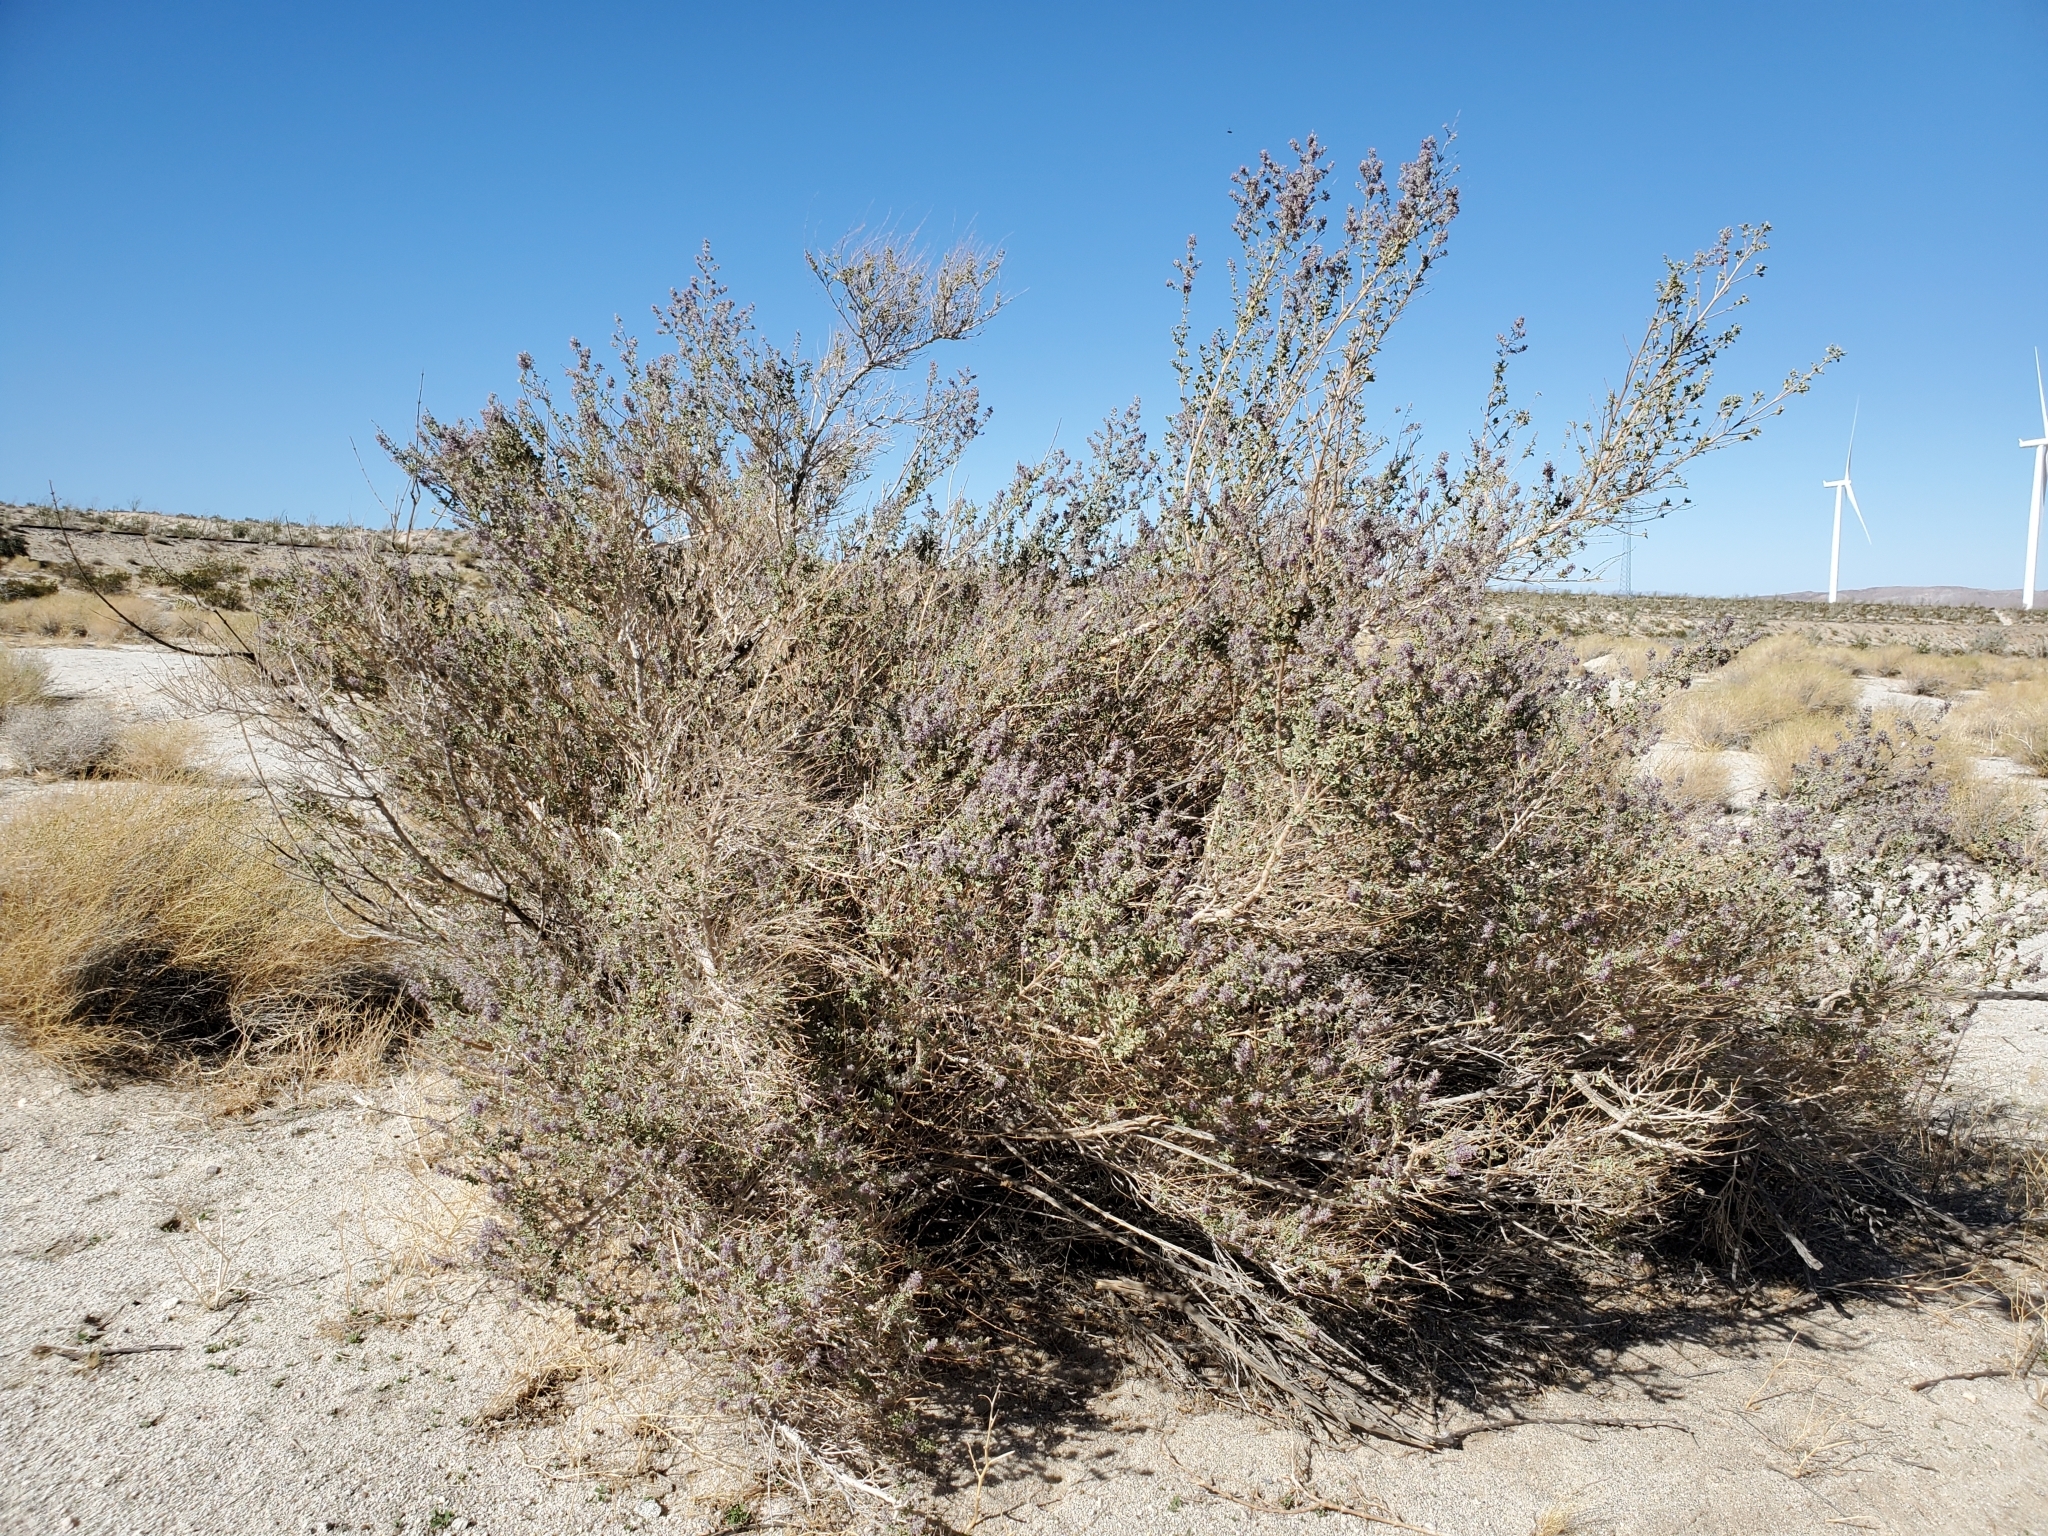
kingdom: Plantae
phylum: Tracheophyta
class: Magnoliopsida
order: Lamiales
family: Lamiaceae
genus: Condea
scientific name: Condea emoryi
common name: Chia
